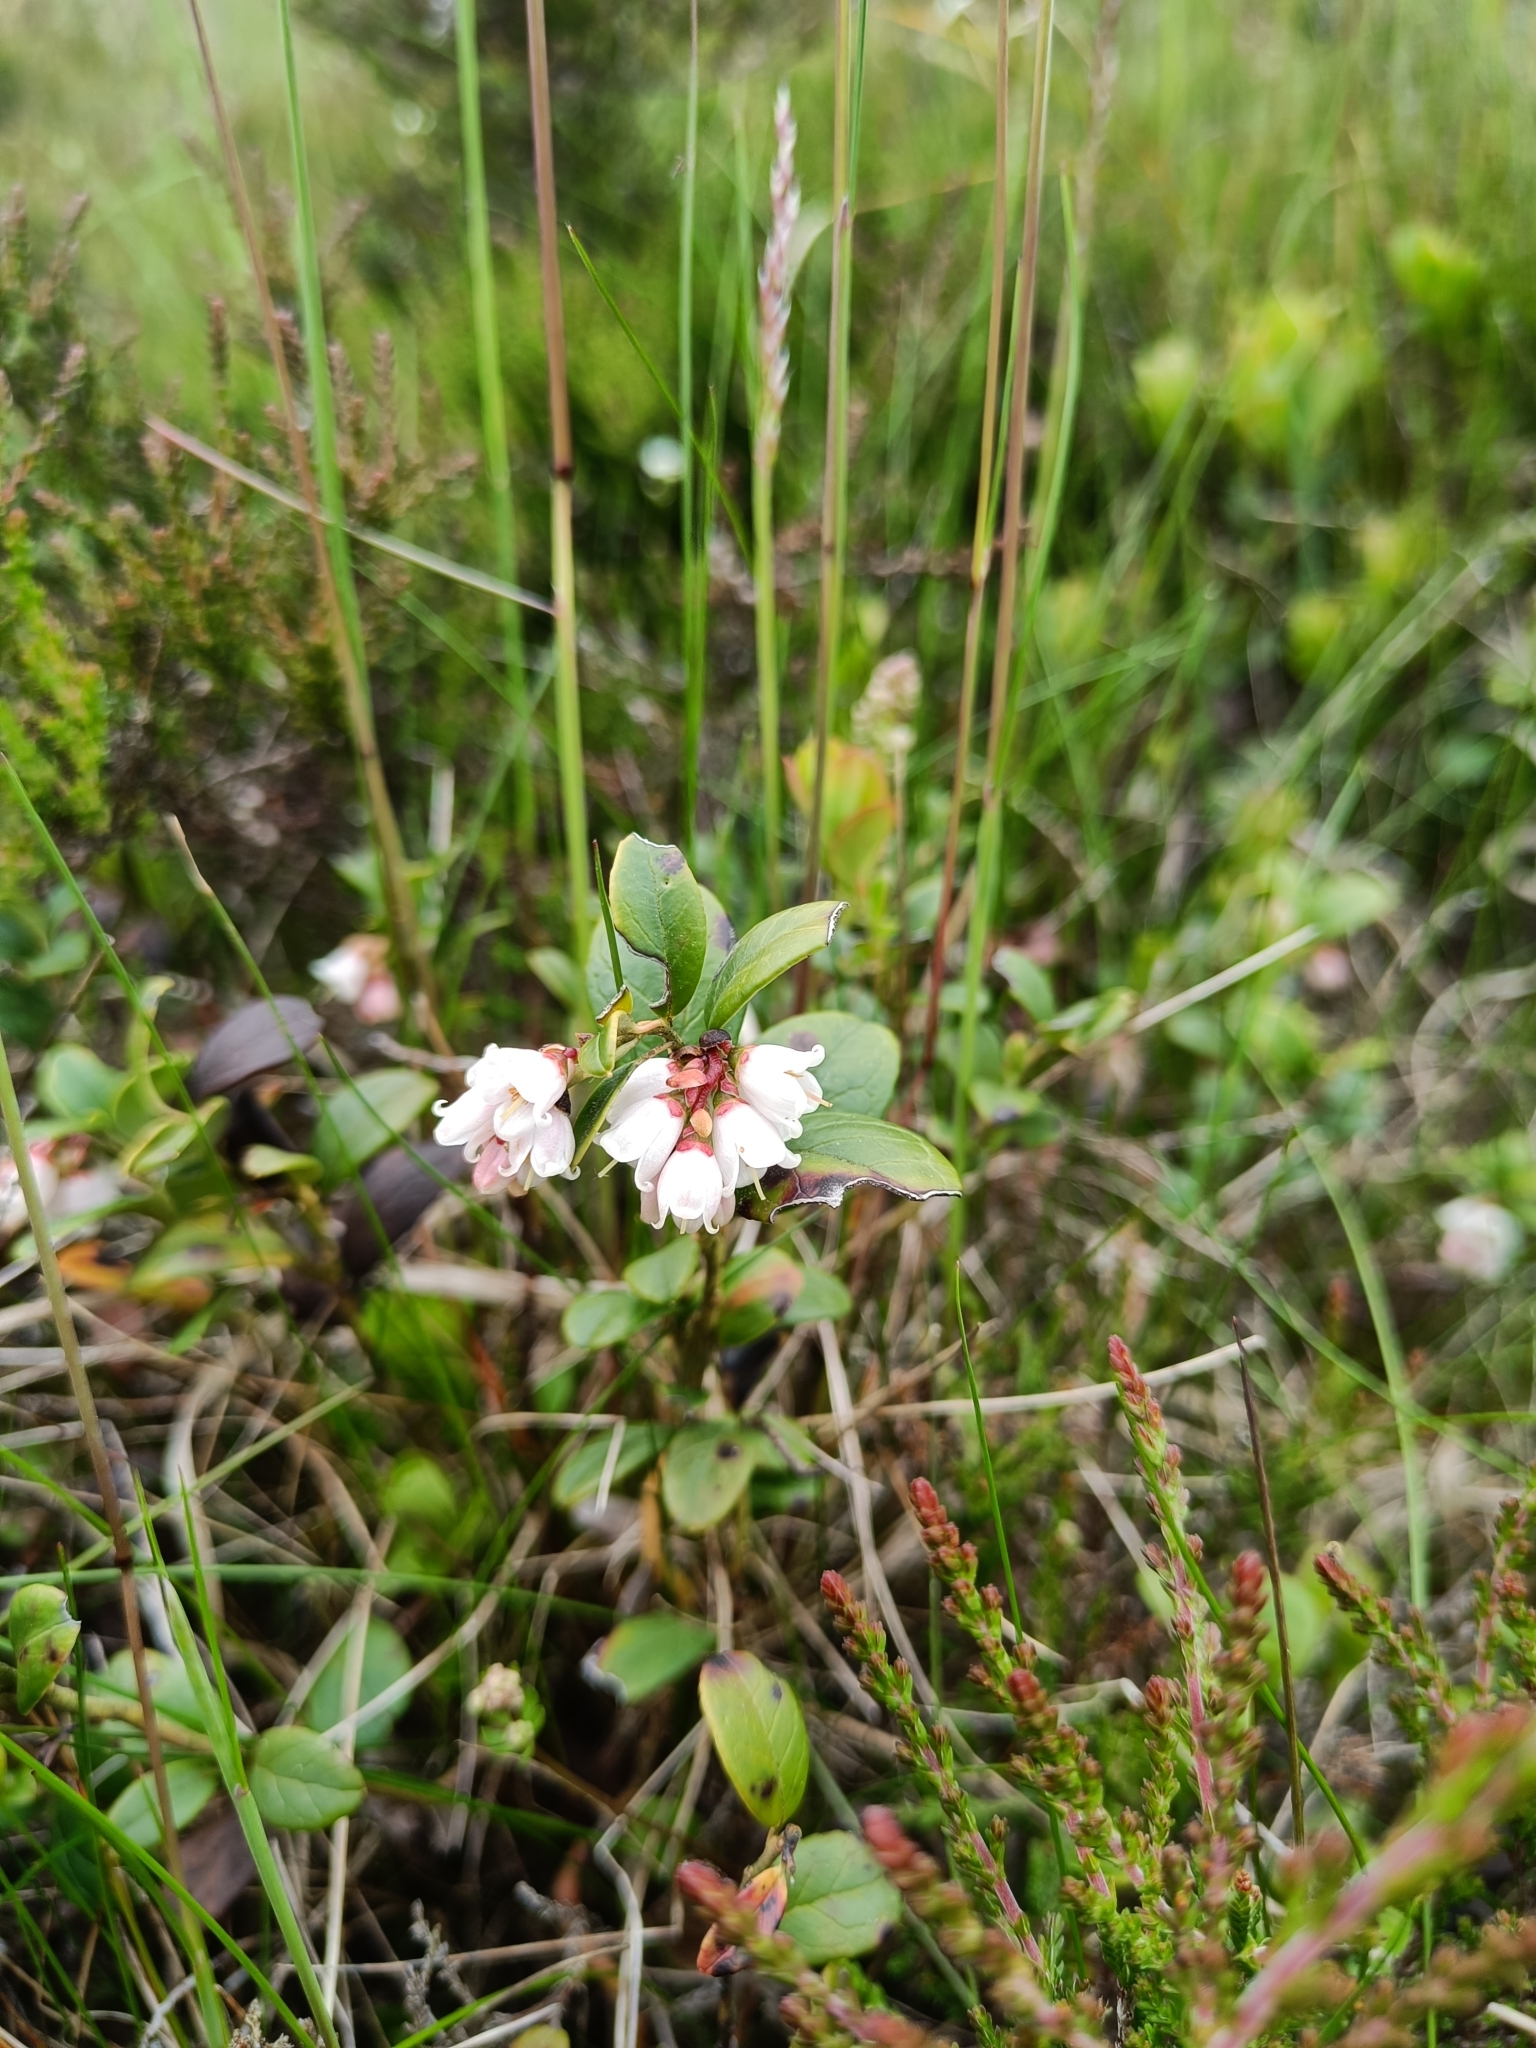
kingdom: Plantae
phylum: Tracheophyta
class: Magnoliopsida
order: Ericales
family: Ericaceae
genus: Vaccinium
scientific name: Vaccinium vitis-idaea
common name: Cowberry
